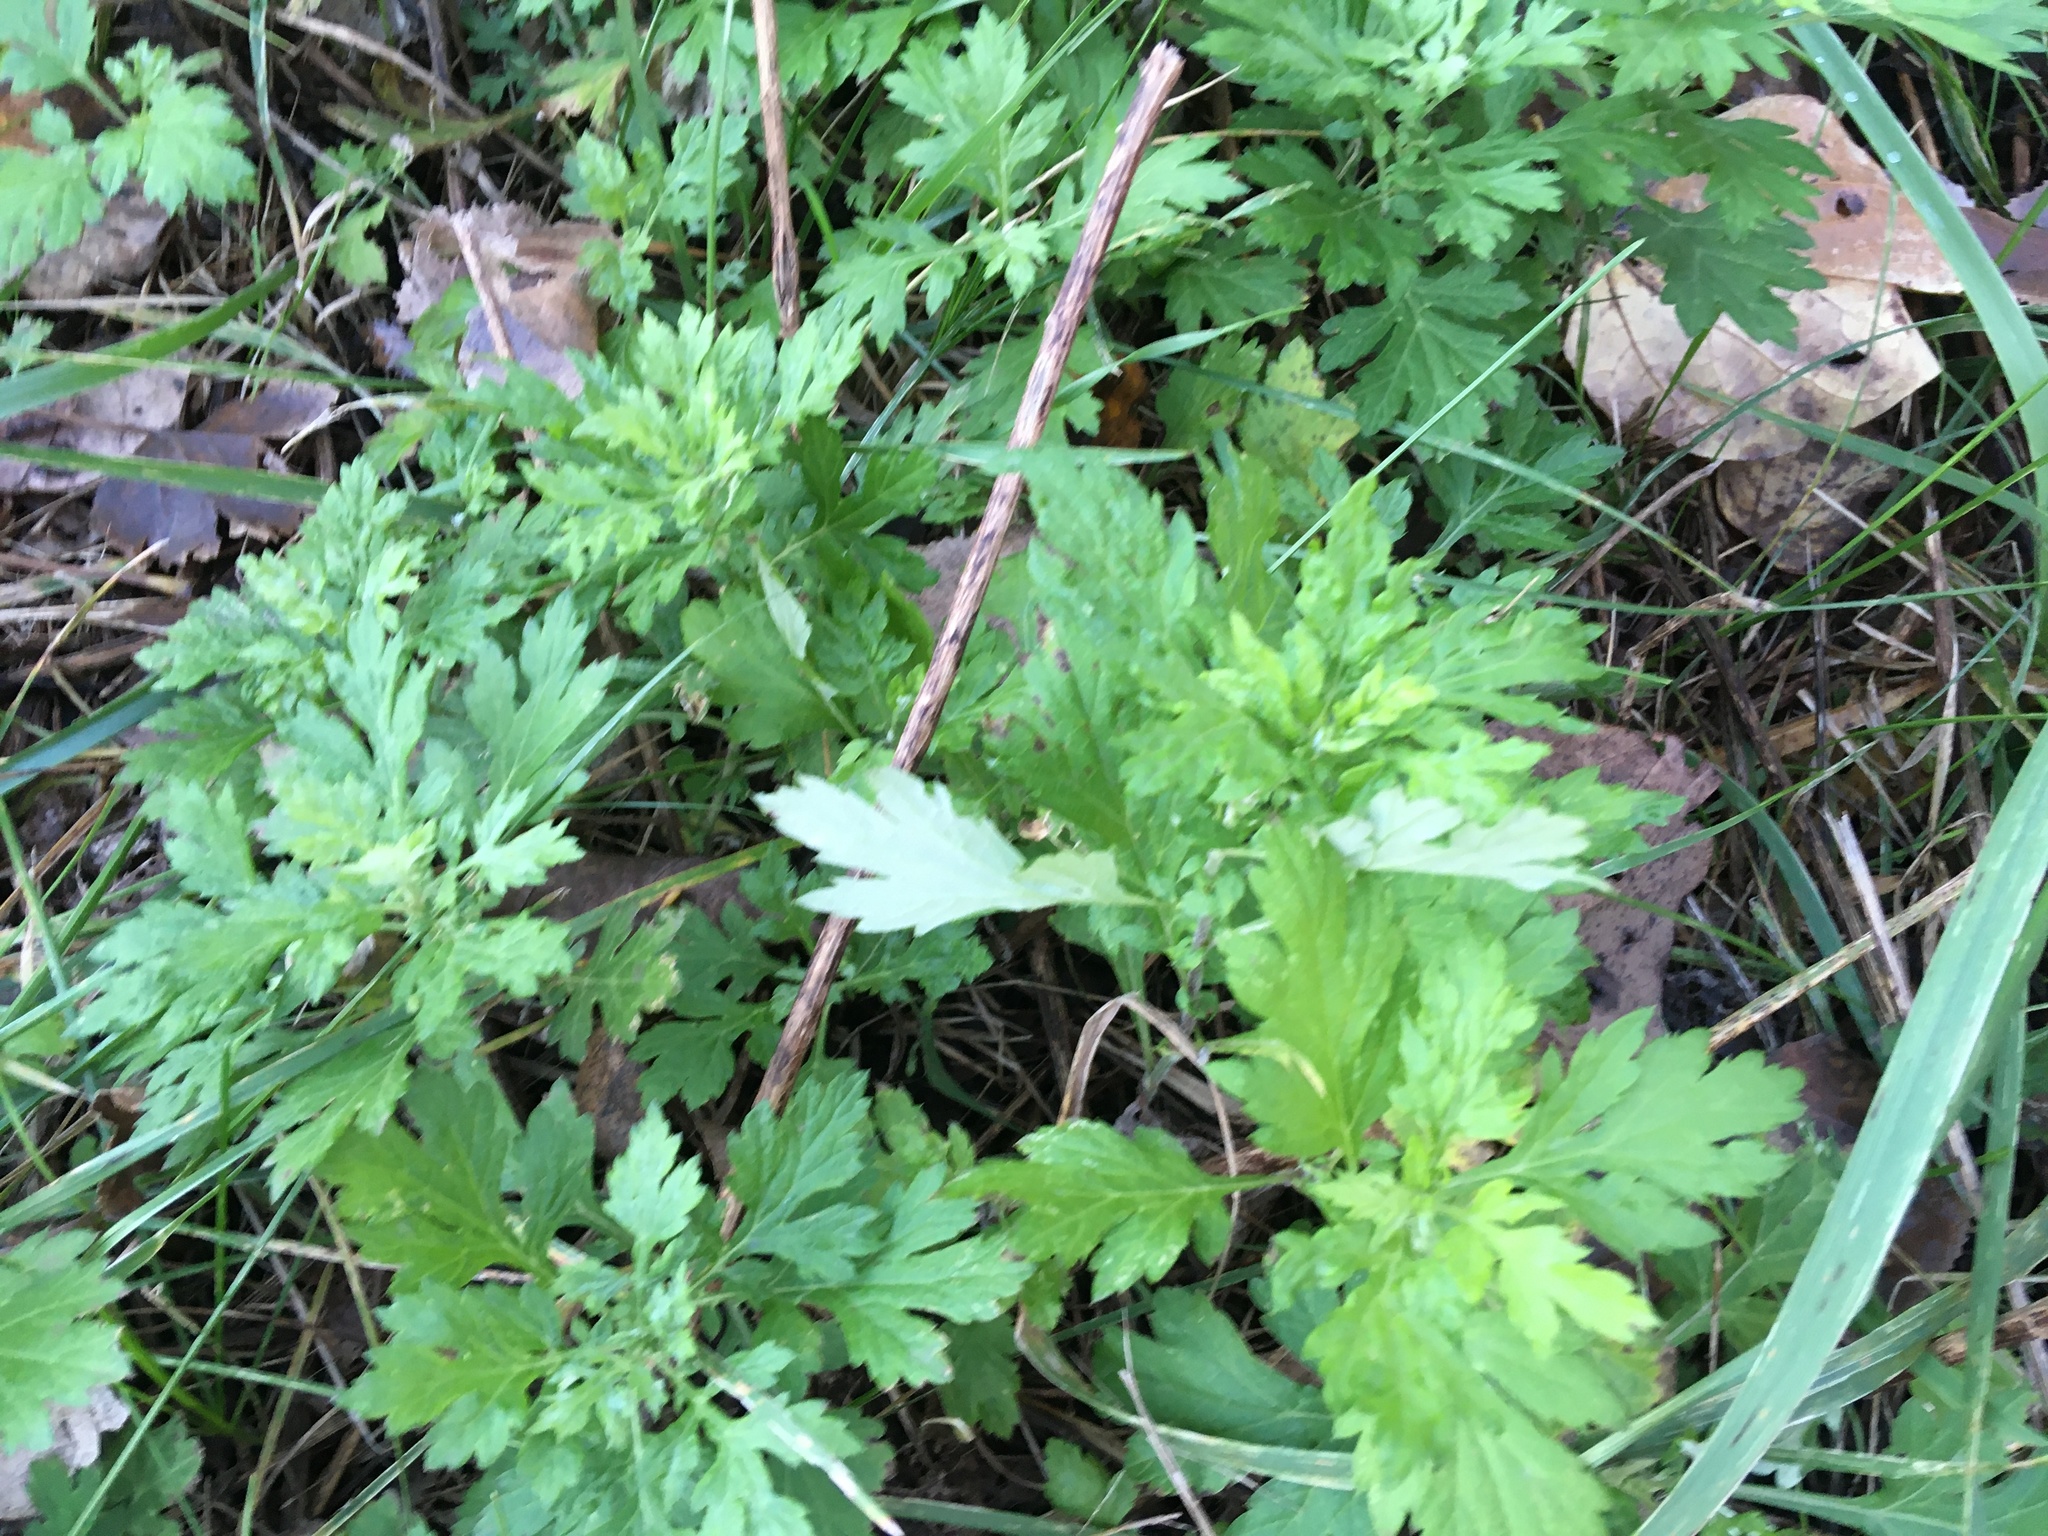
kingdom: Plantae
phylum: Tracheophyta
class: Magnoliopsida
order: Asterales
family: Asteraceae
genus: Artemisia
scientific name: Artemisia vulgaris
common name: Mugwort
